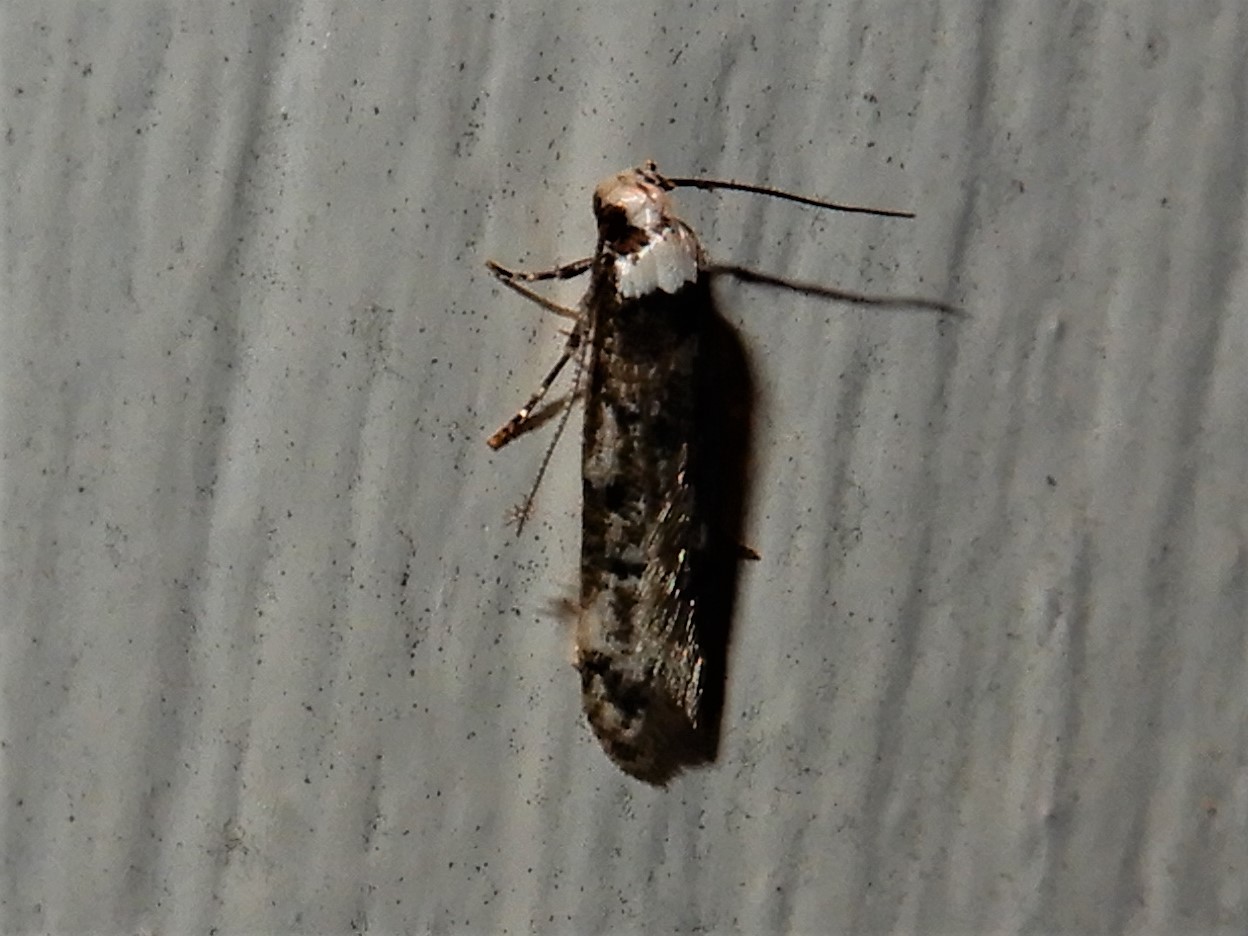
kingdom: Animalia
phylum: Arthropoda
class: Insecta
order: Lepidoptera
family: Oecophoridae
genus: Endrosis
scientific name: Endrosis sarcitrella
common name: White-shouldered house moth
